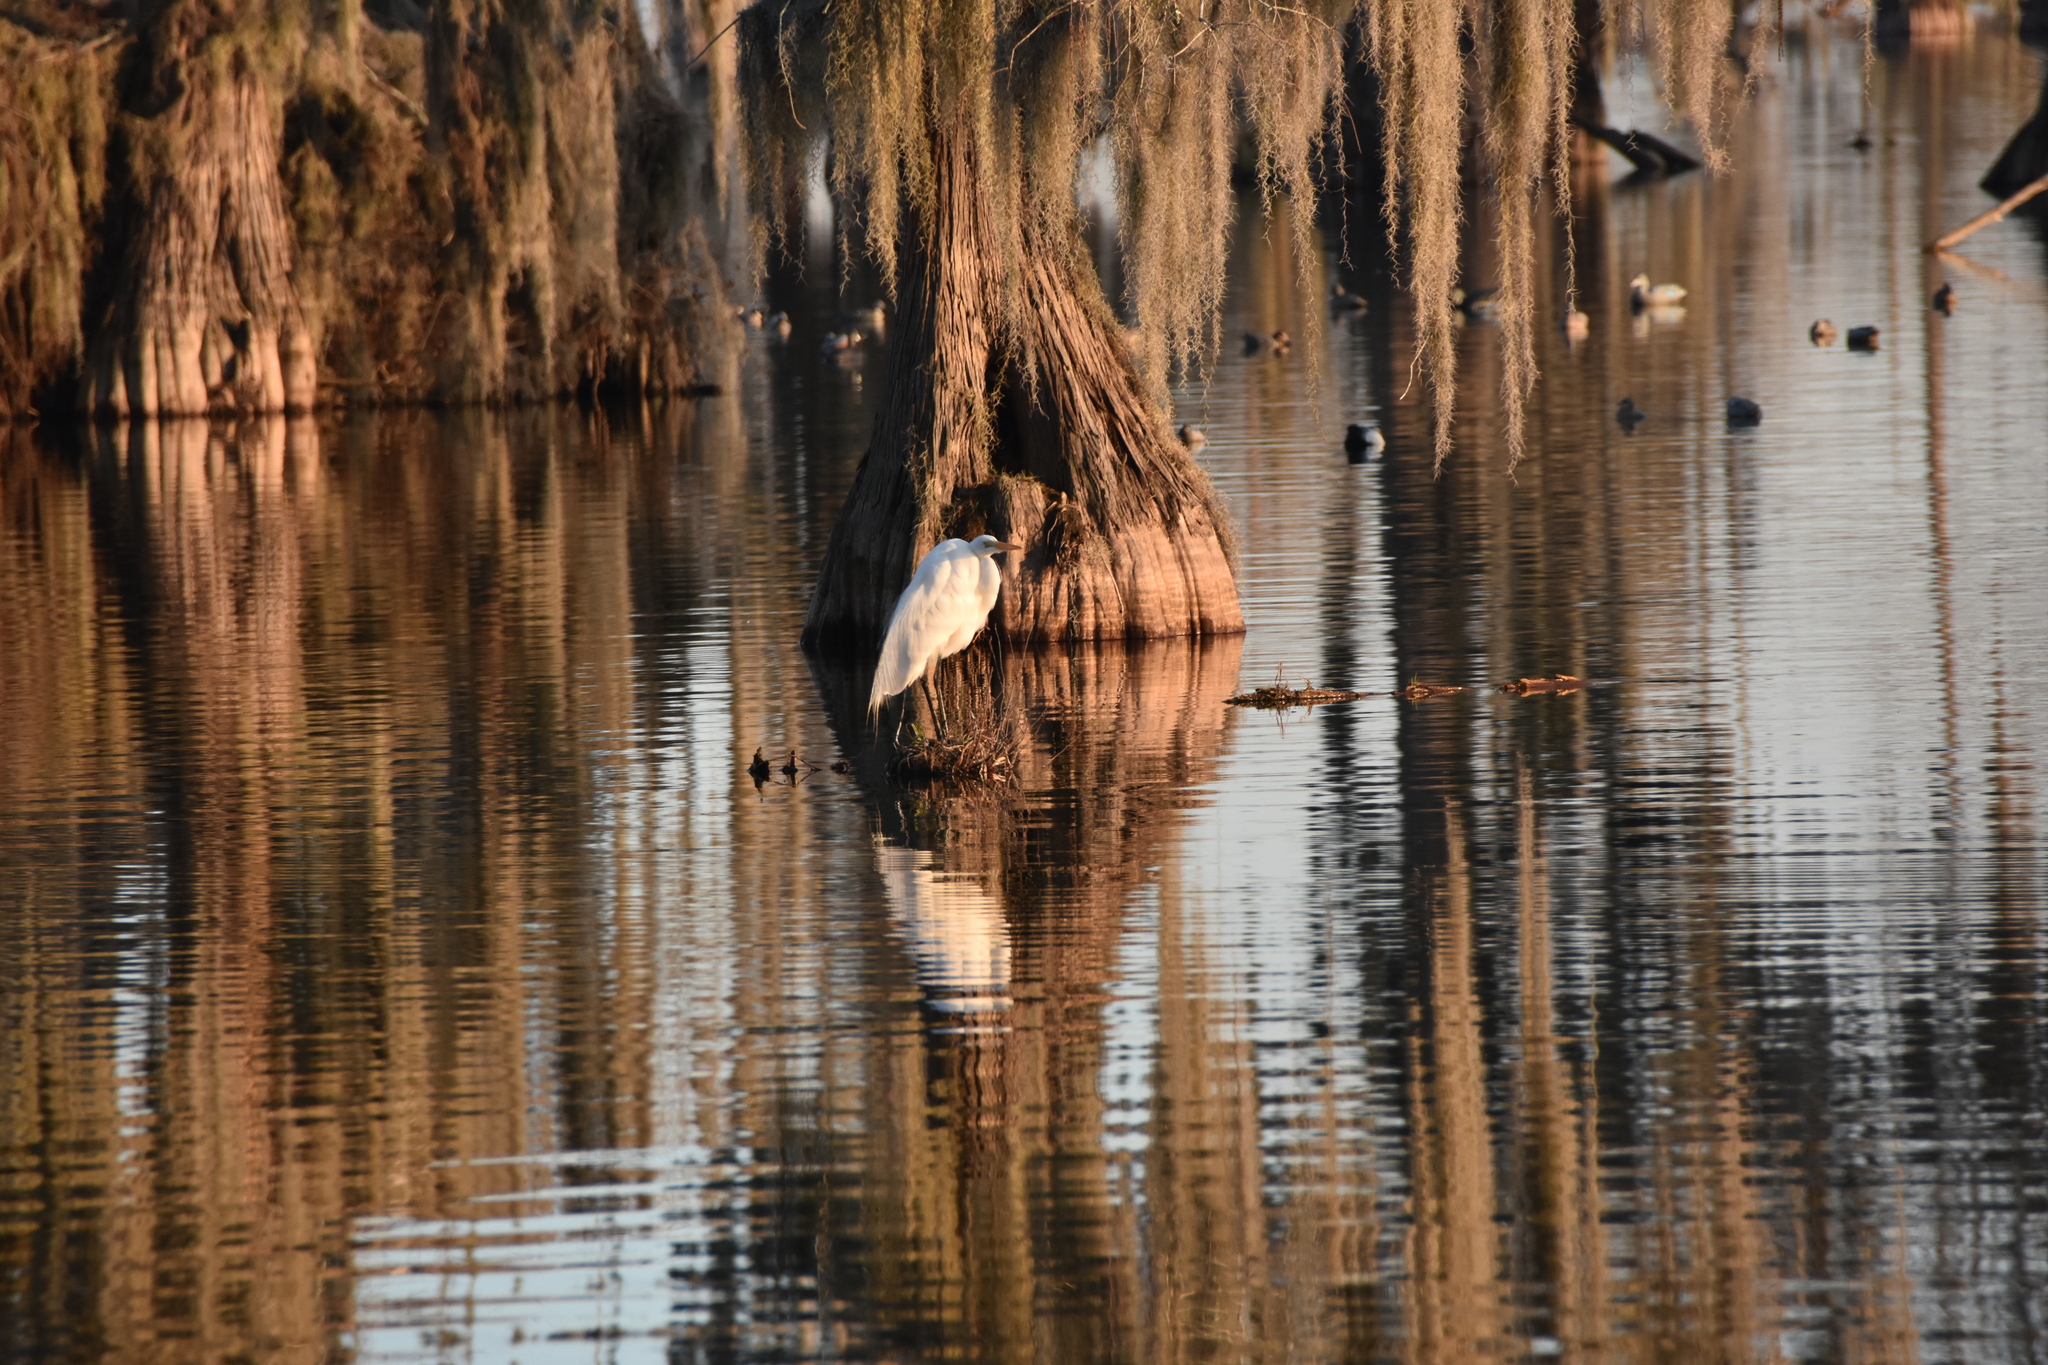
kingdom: Animalia
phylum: Chordata
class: Aves
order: Pelecaniformes
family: Ardeidae
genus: Ardea
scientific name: Ardea alba
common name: Great egret
